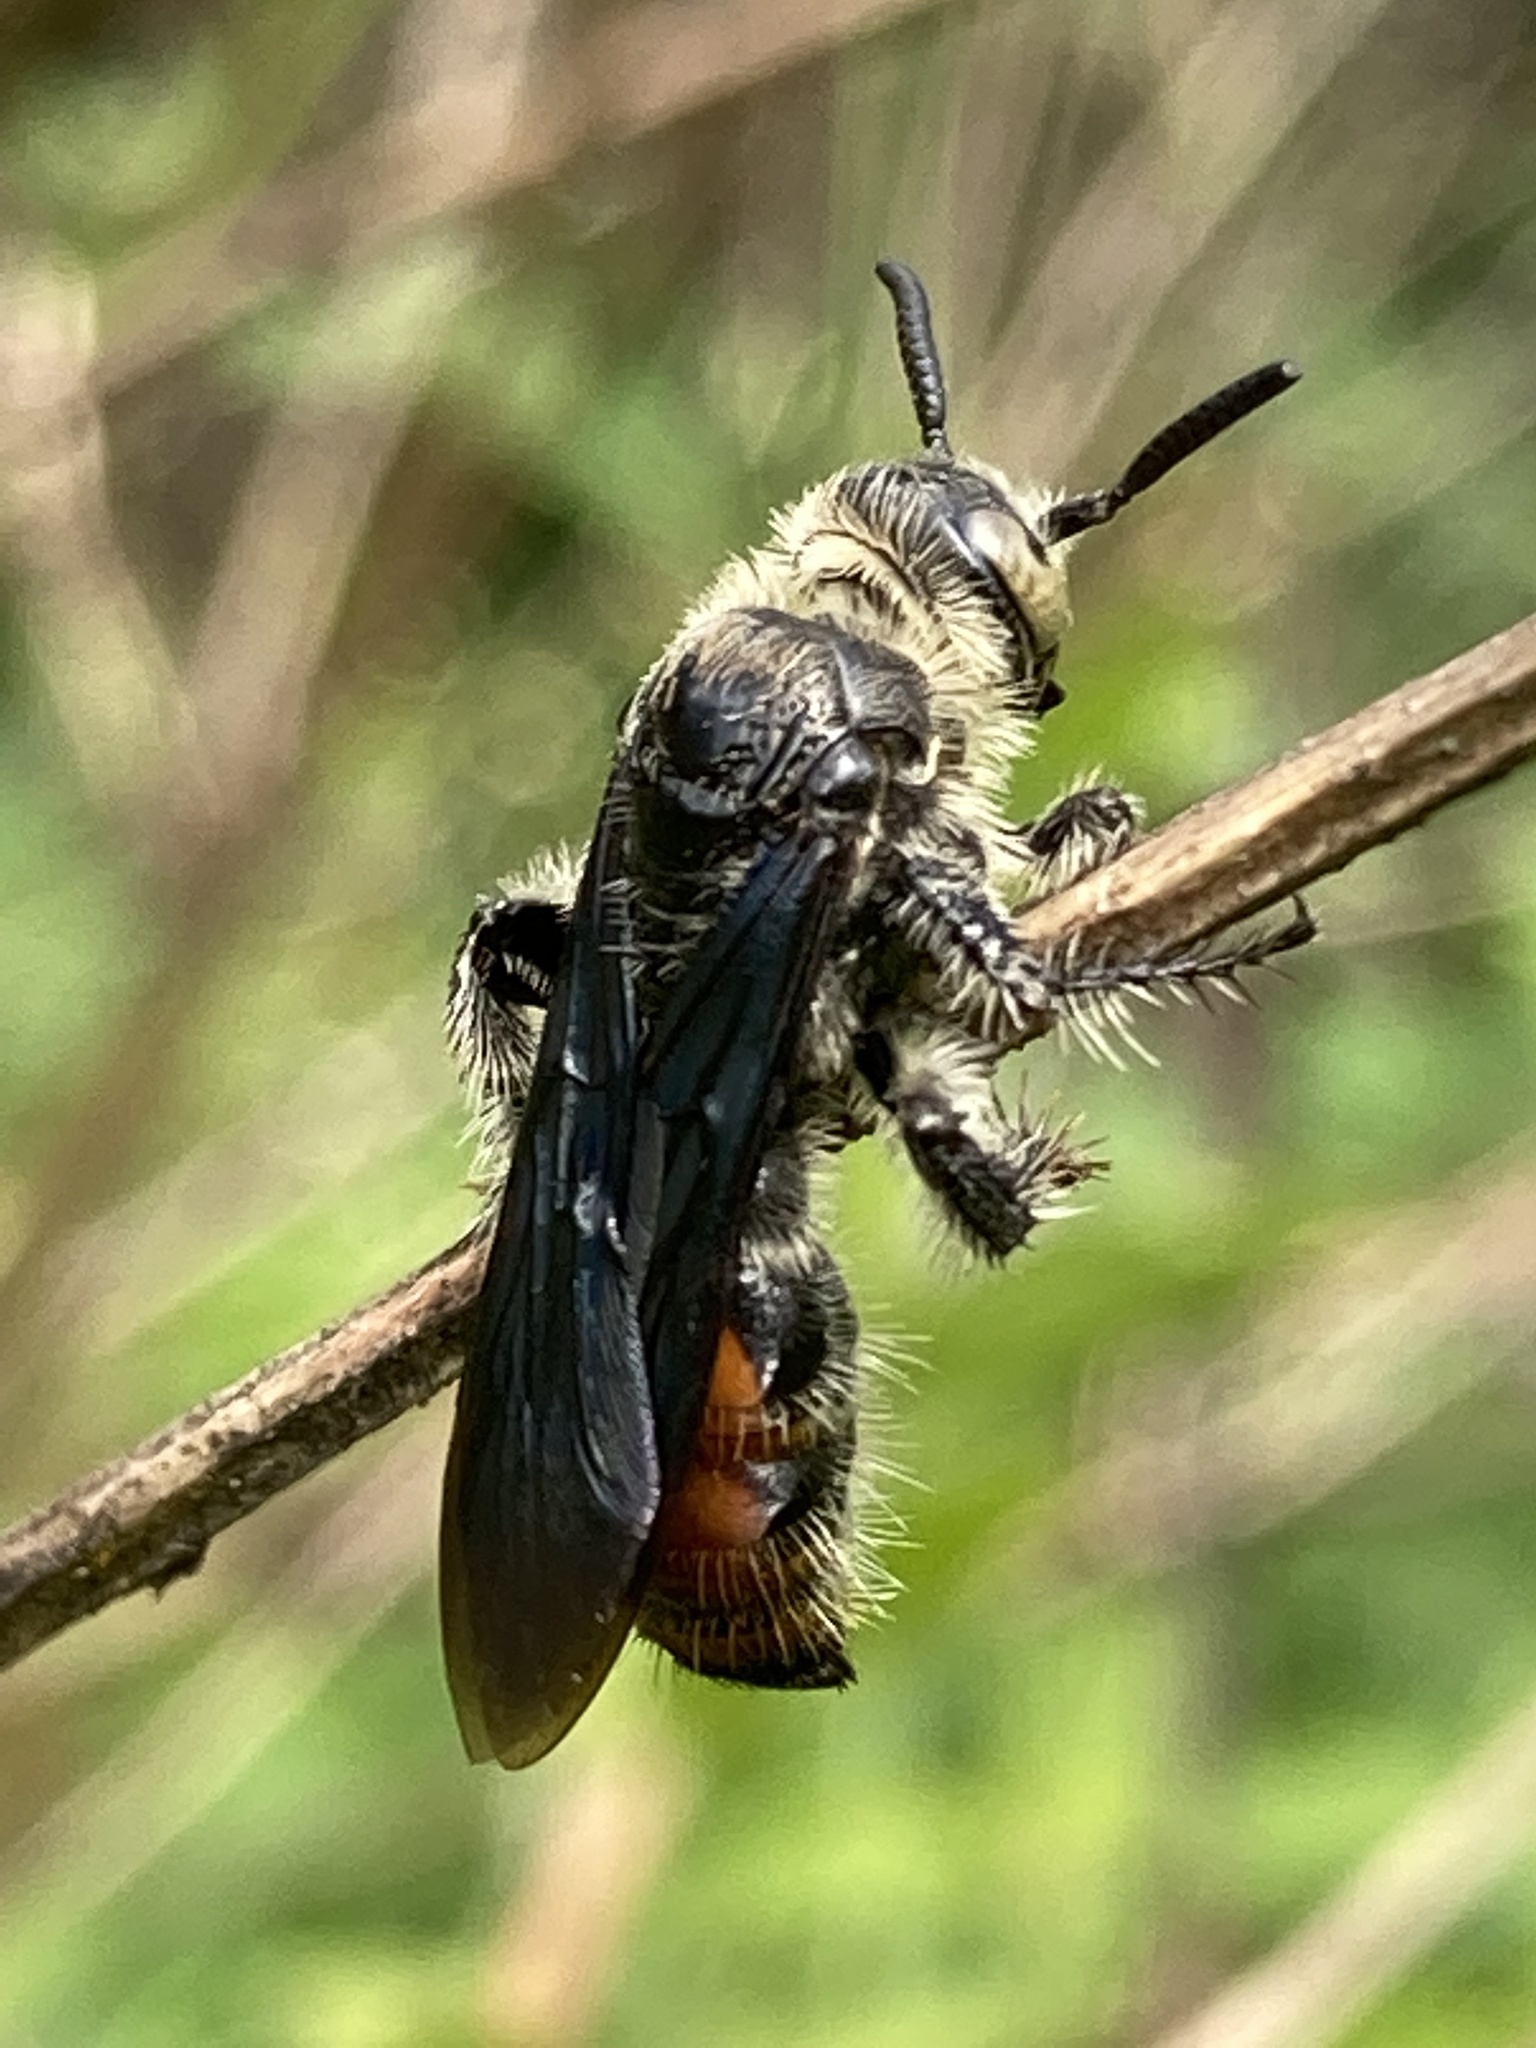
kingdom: Animalia
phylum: Arthropoda
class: Insecta
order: Hymenoptera
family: Scoliidae
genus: Dielis
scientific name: Dielis dorsata
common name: Scoliid wasp
